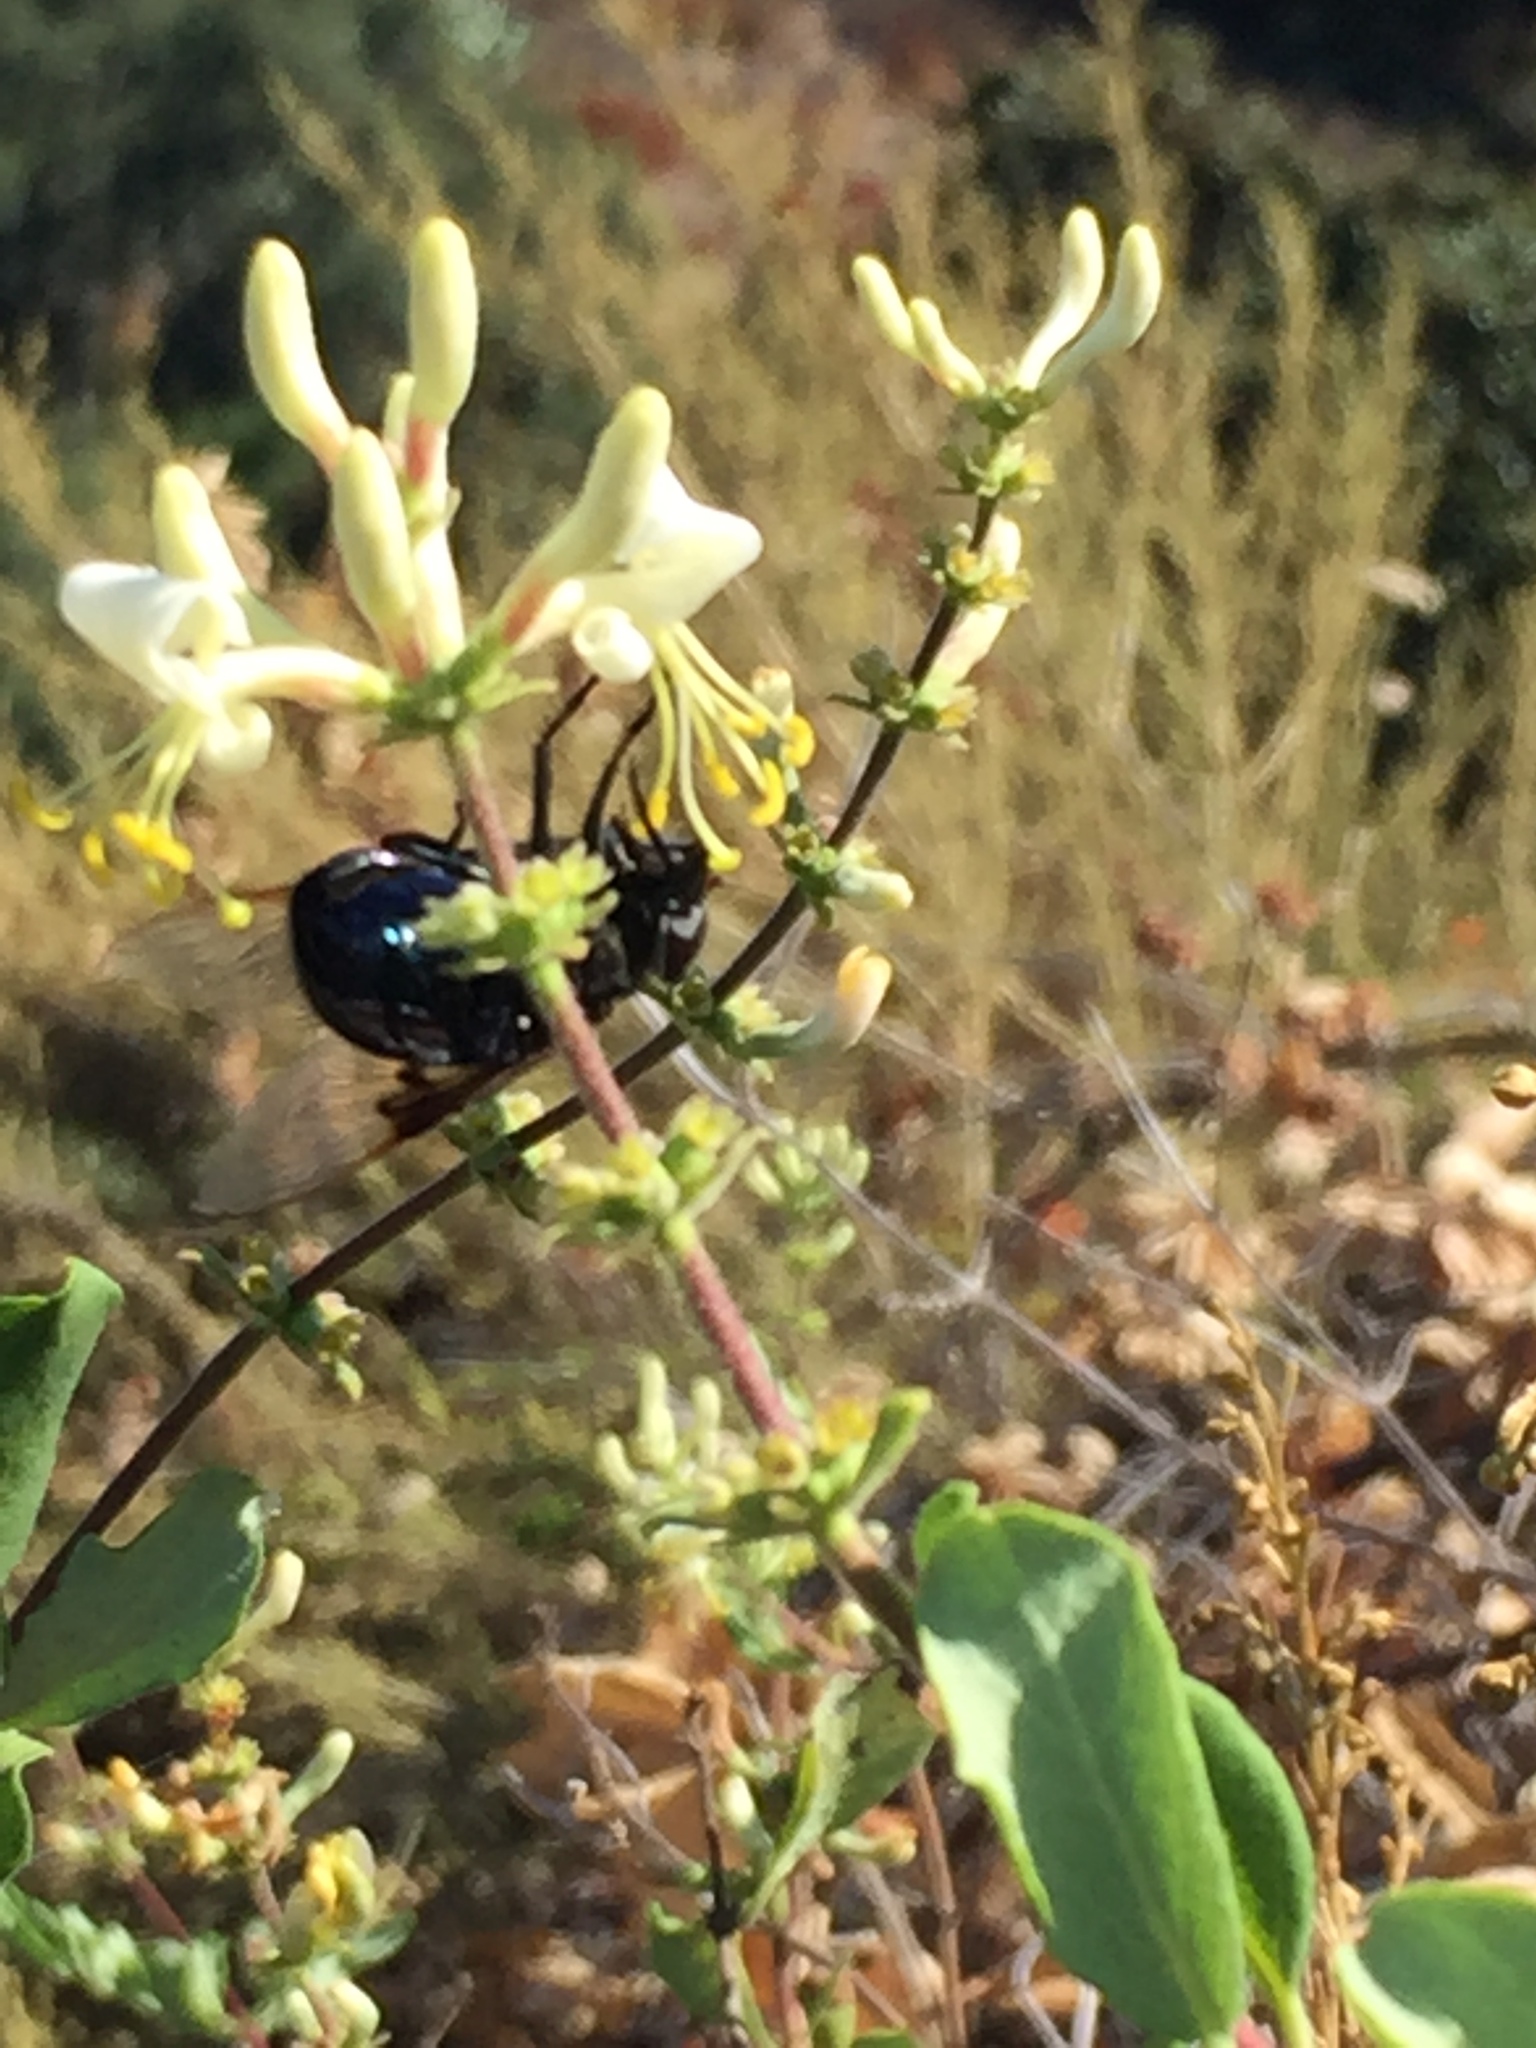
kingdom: Animalia
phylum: Arthropoda
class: Insecta
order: Diptera
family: Syrphidae
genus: Copestylum
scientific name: Copestylum
